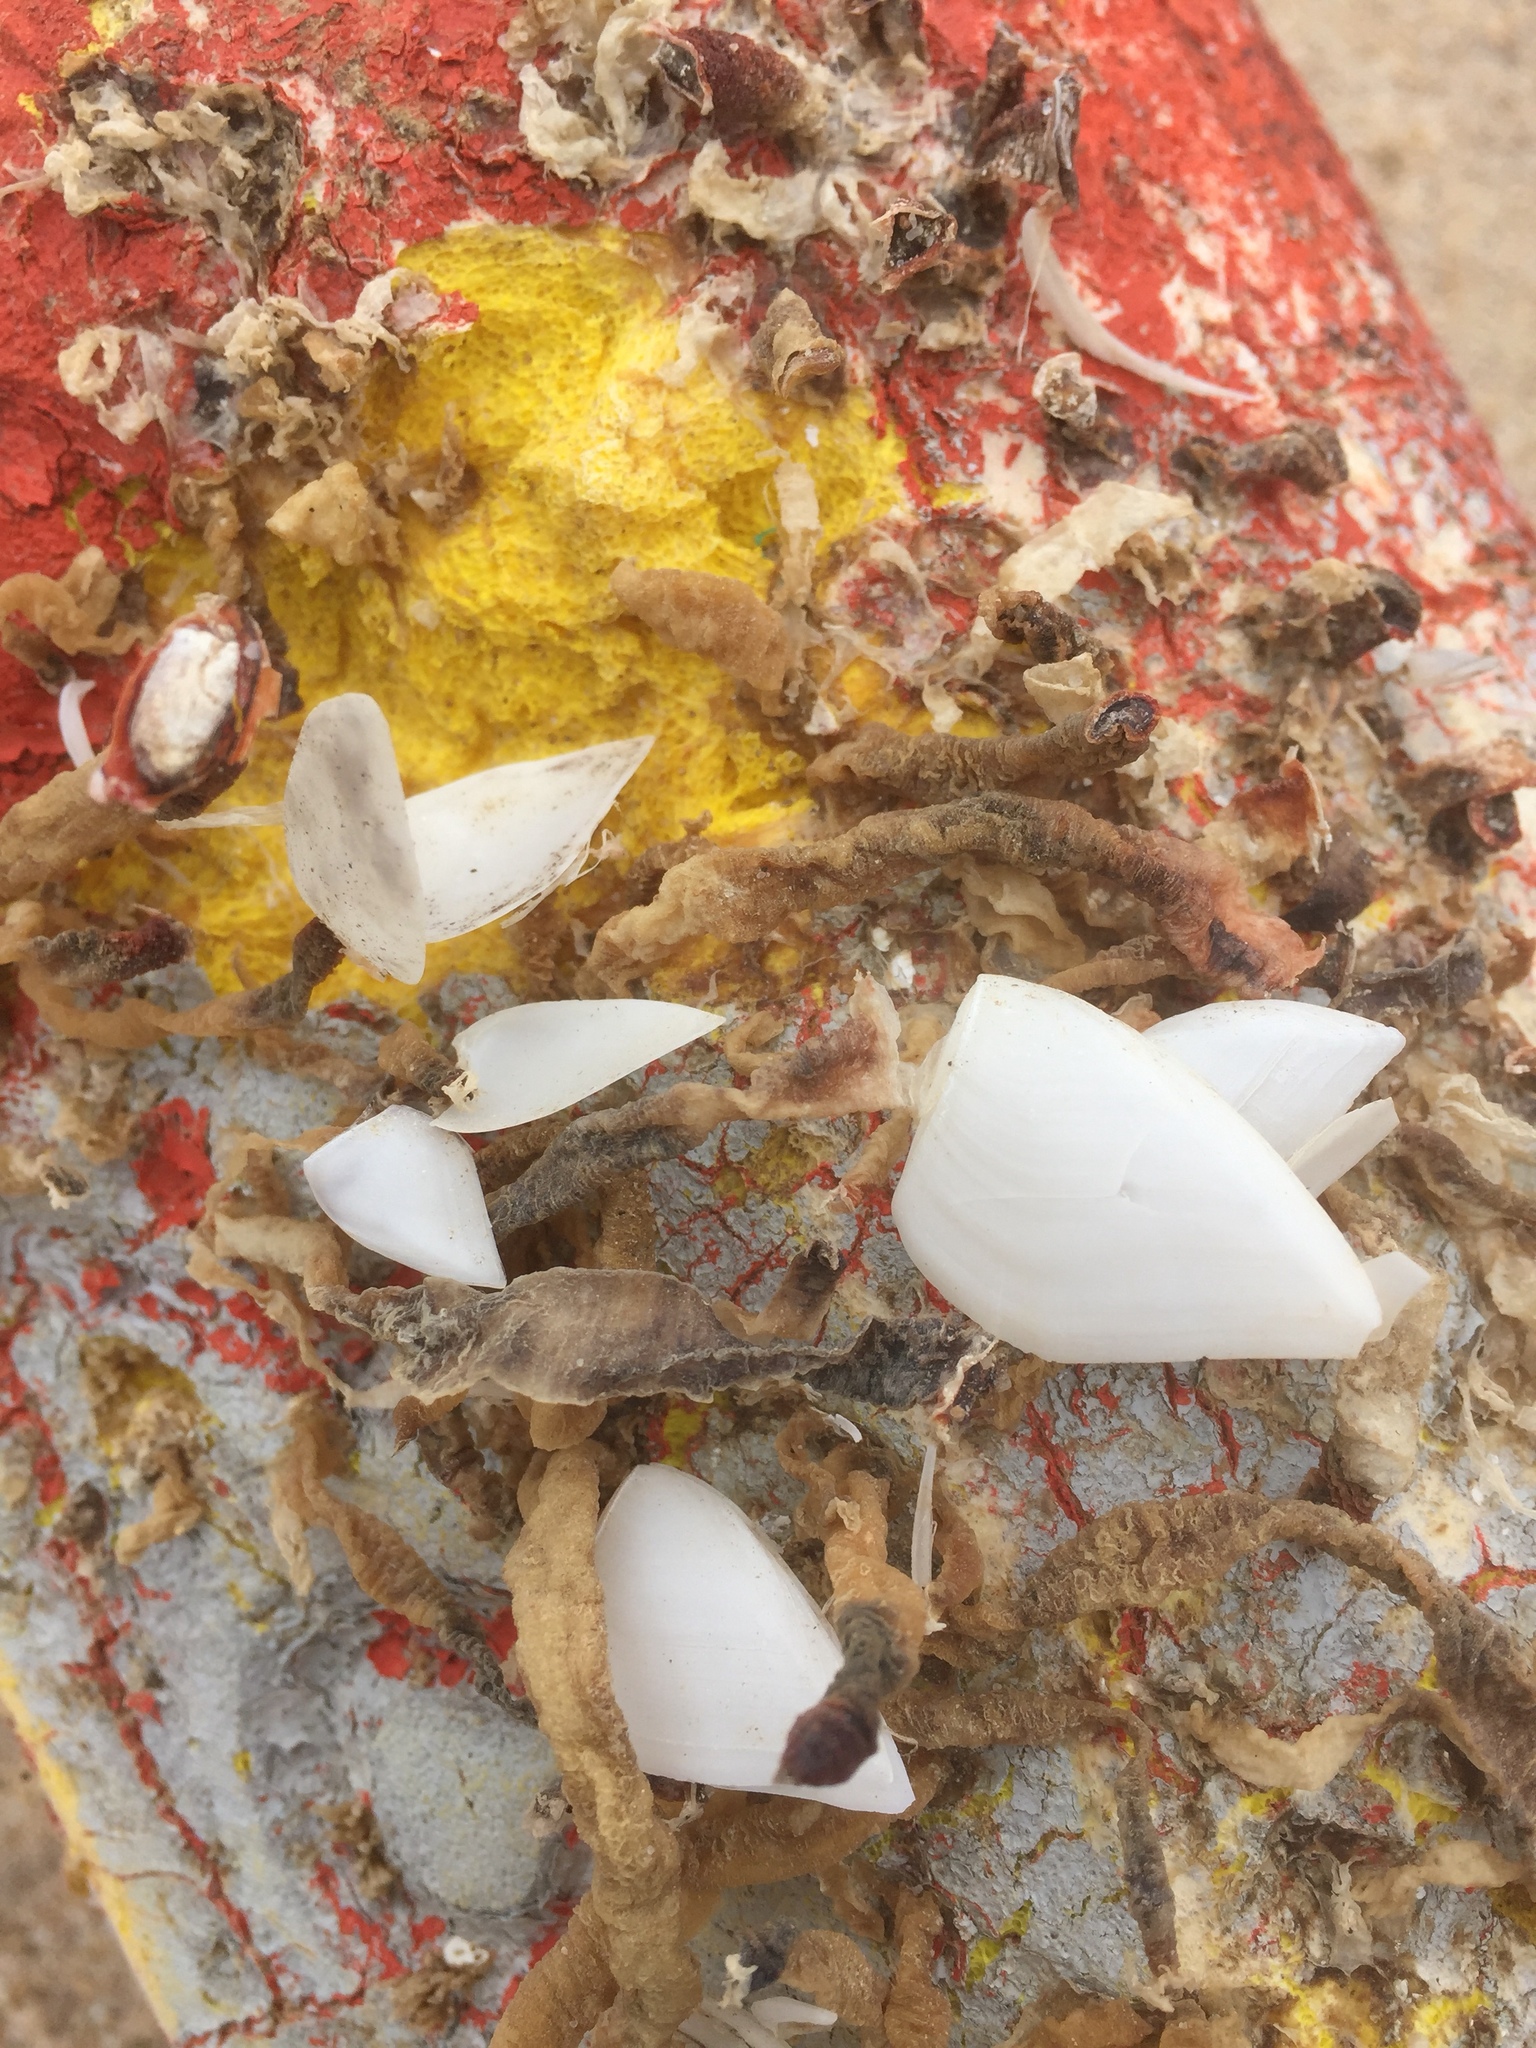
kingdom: Animalia
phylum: Arthropoda
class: Maxillopoda
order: Pedunculata
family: Lepadidae
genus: Lepas
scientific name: Lepas anatifera
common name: Common goose barnacle
